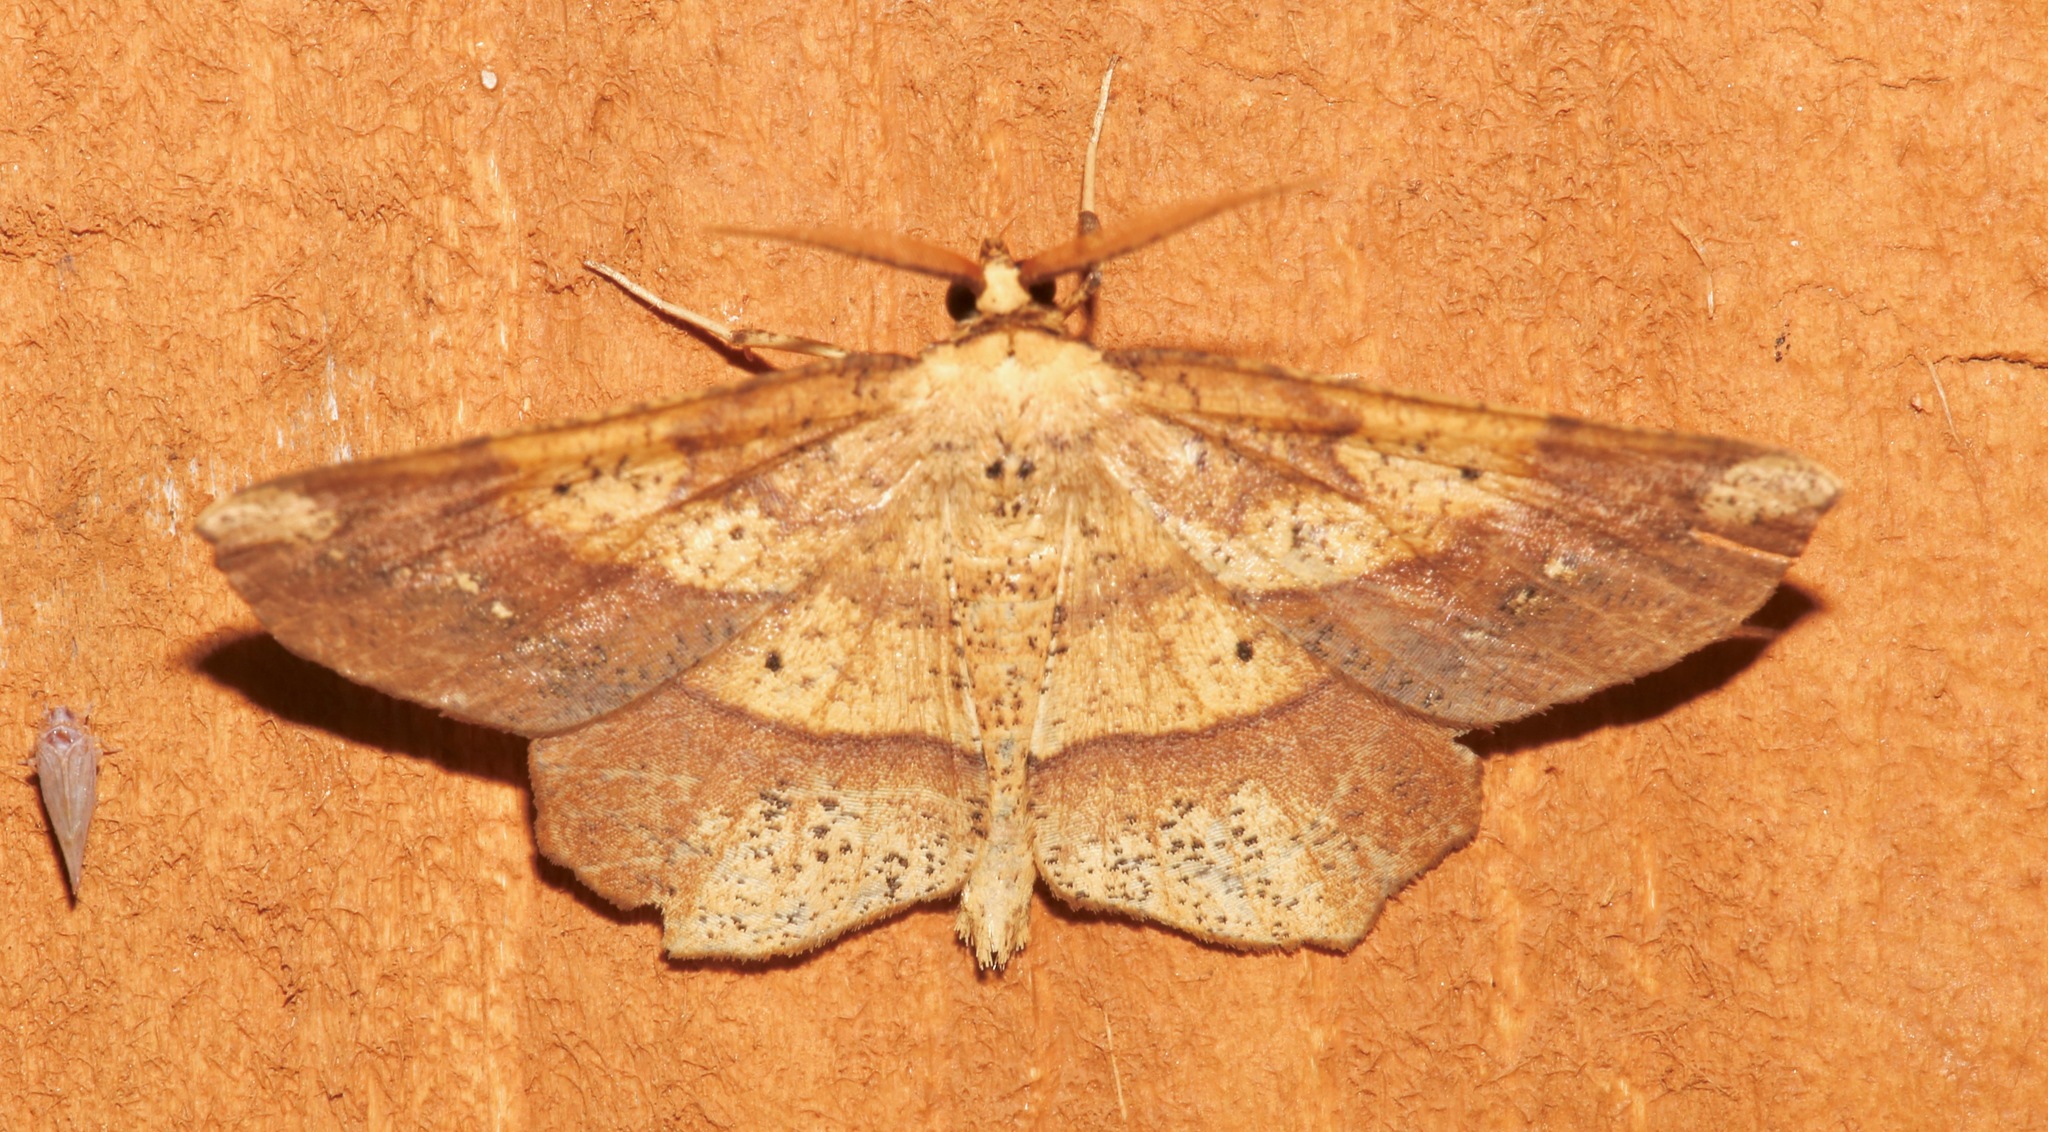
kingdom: Animalia
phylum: Arthropoda
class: Insecta
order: Lepidoptera
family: Geometridae
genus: Euchlaena
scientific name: Euchlaena amoenaria
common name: Deep yellow euchlaena
